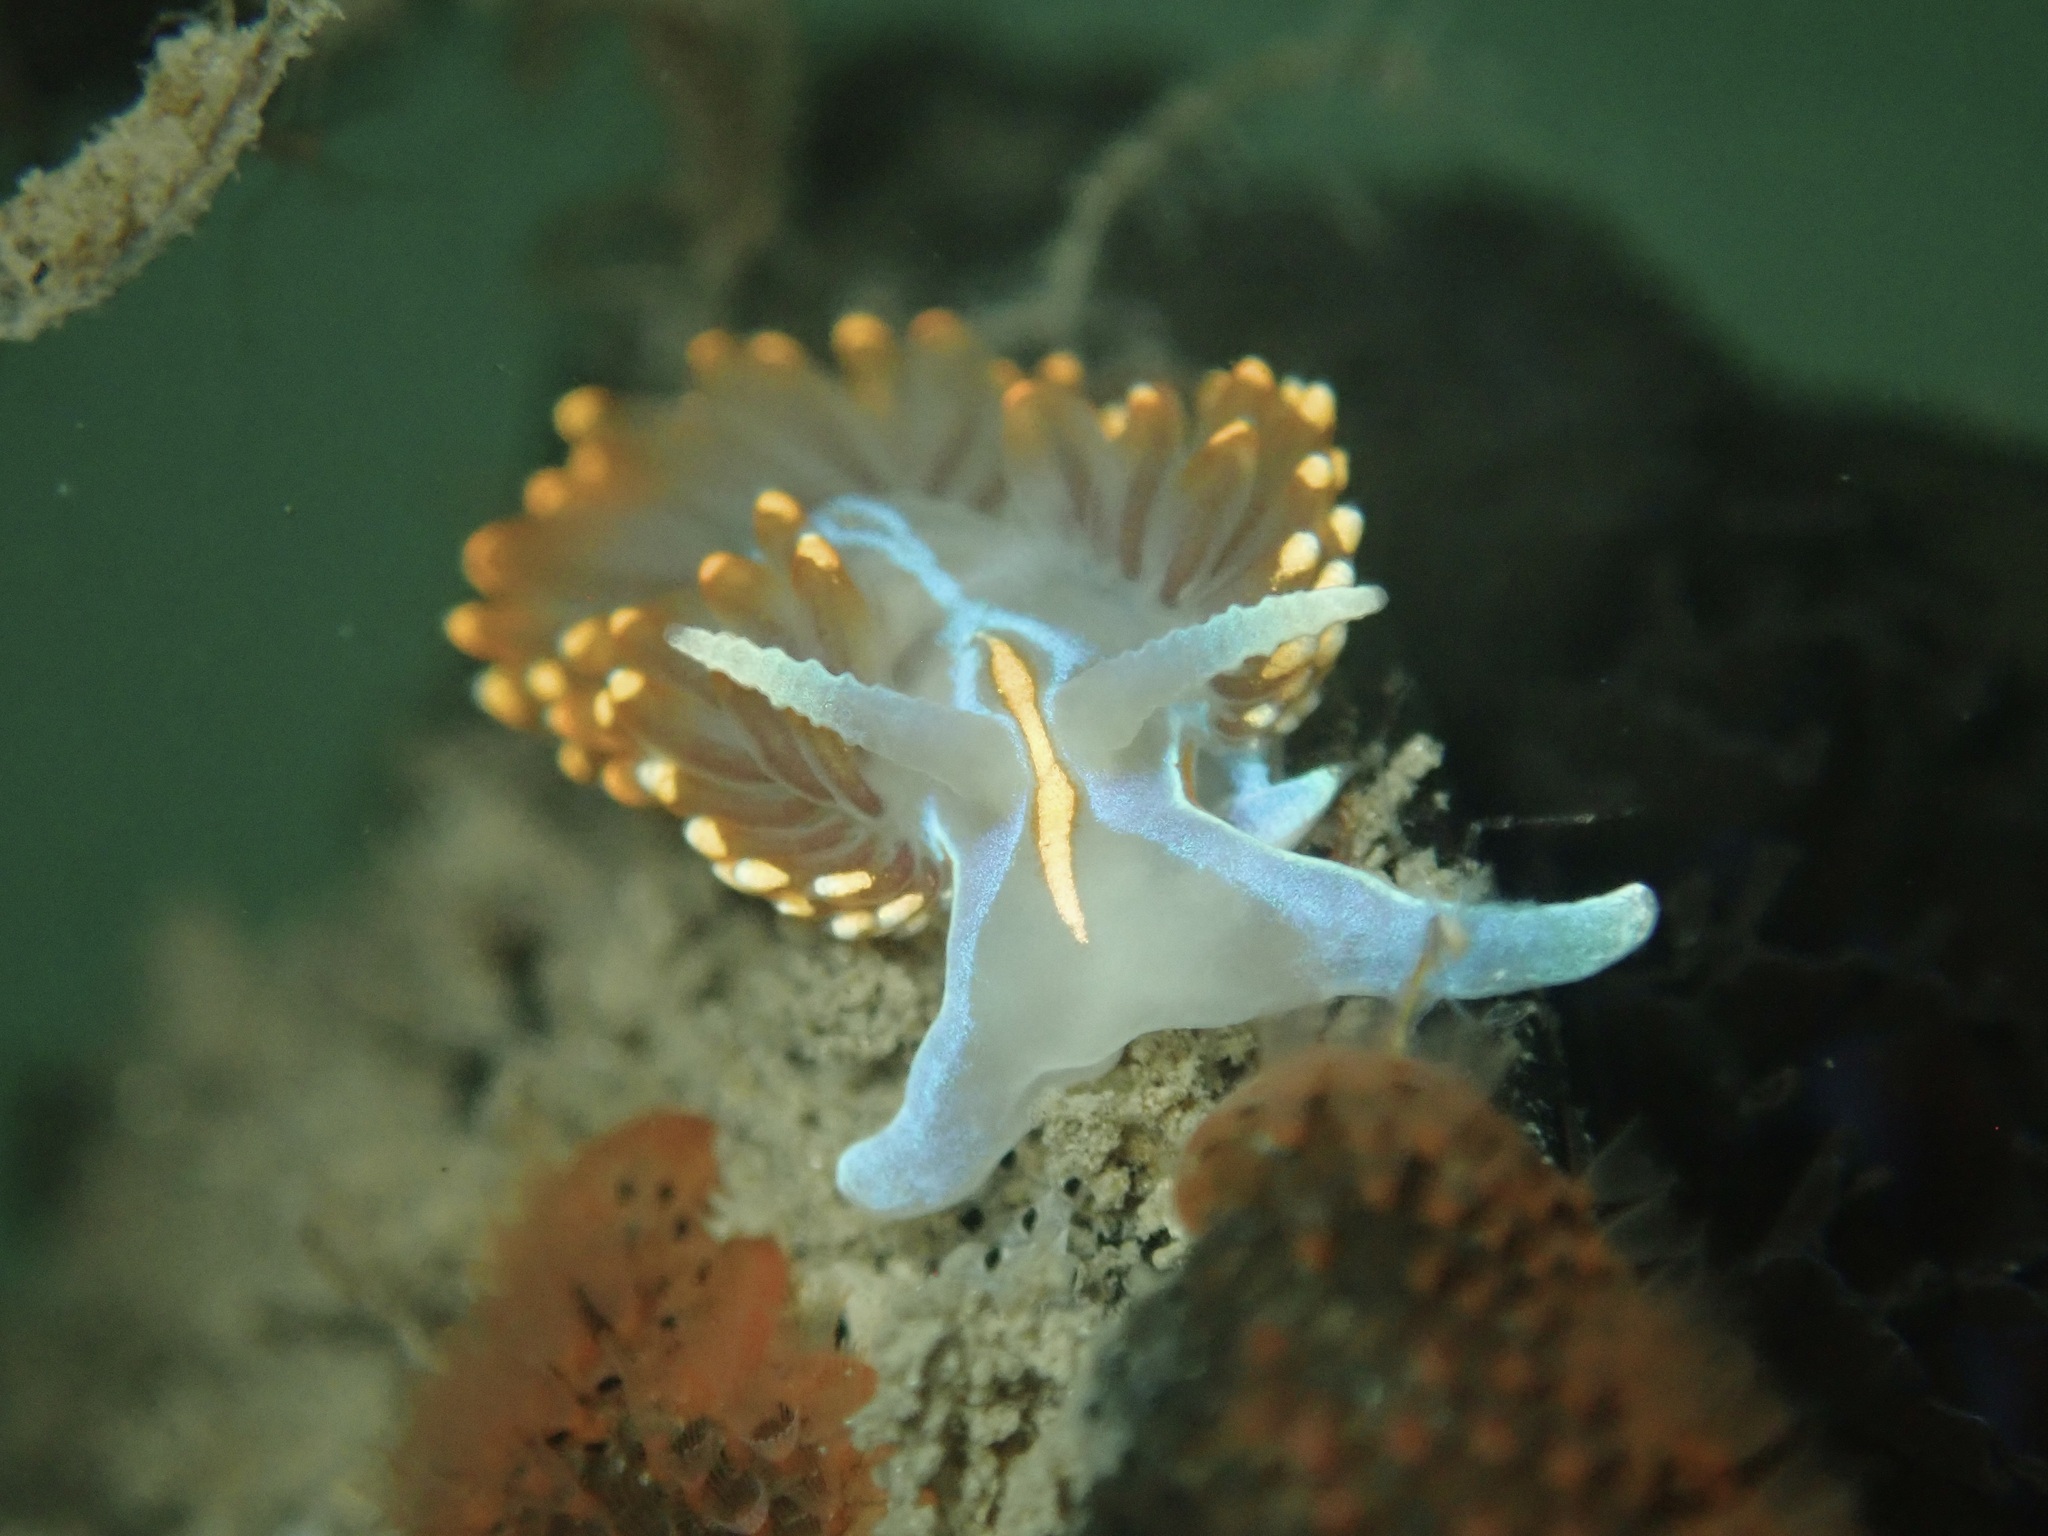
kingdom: Animalia
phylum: Mollusca
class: Gastropoda
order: Nudibranchia
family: Myrrhinidae
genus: Hermissenda
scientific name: Hermissenda opalescens
